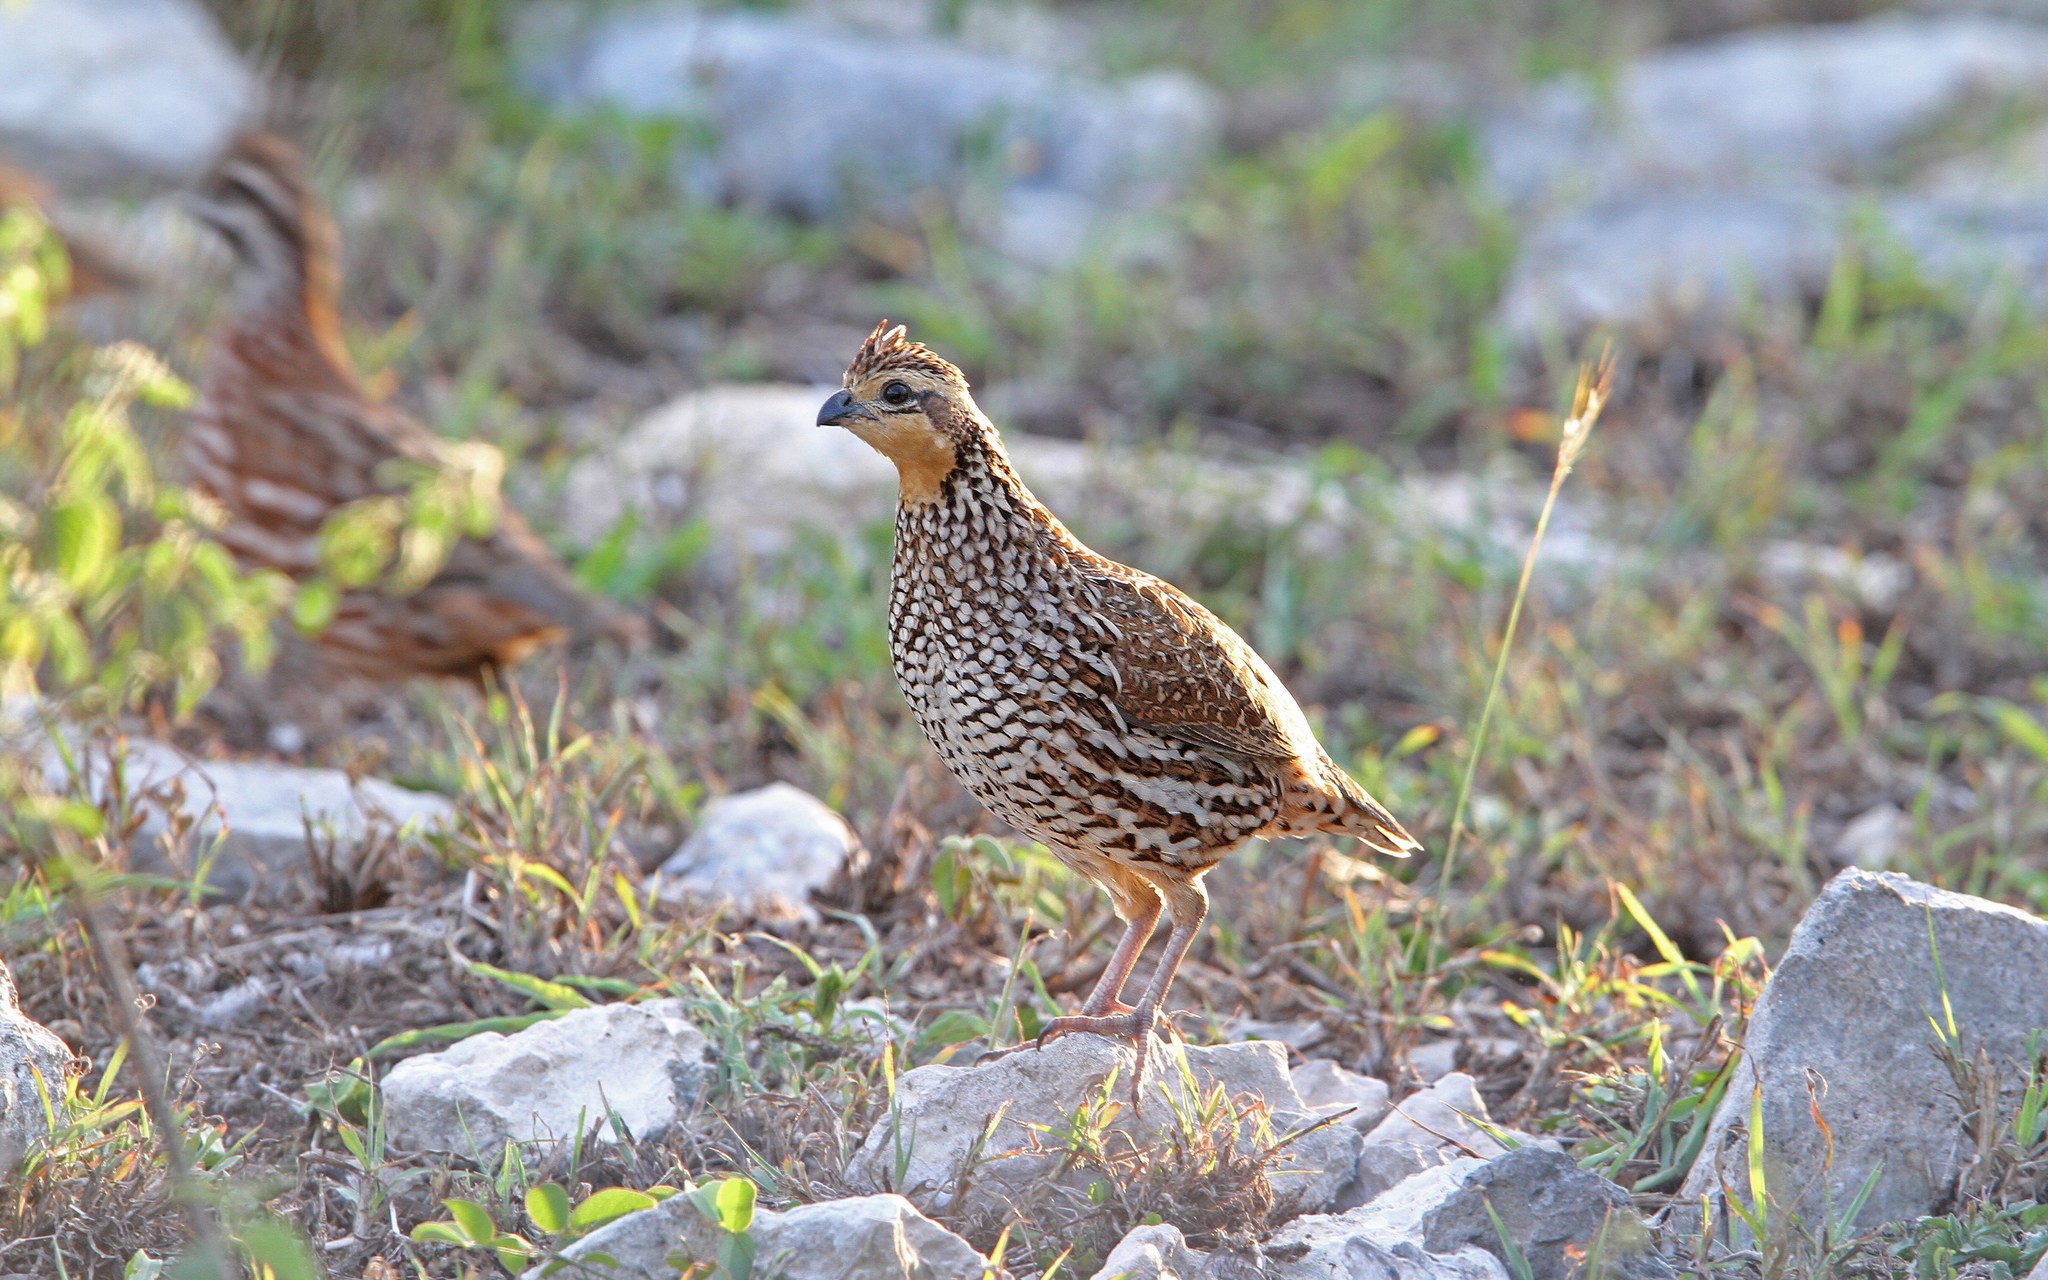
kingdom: Animalia
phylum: Chordata
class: Aves
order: Galliformes
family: Odontophoridae
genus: Colinus
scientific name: Colinus nigrogularis
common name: Yucatan bobwhite
